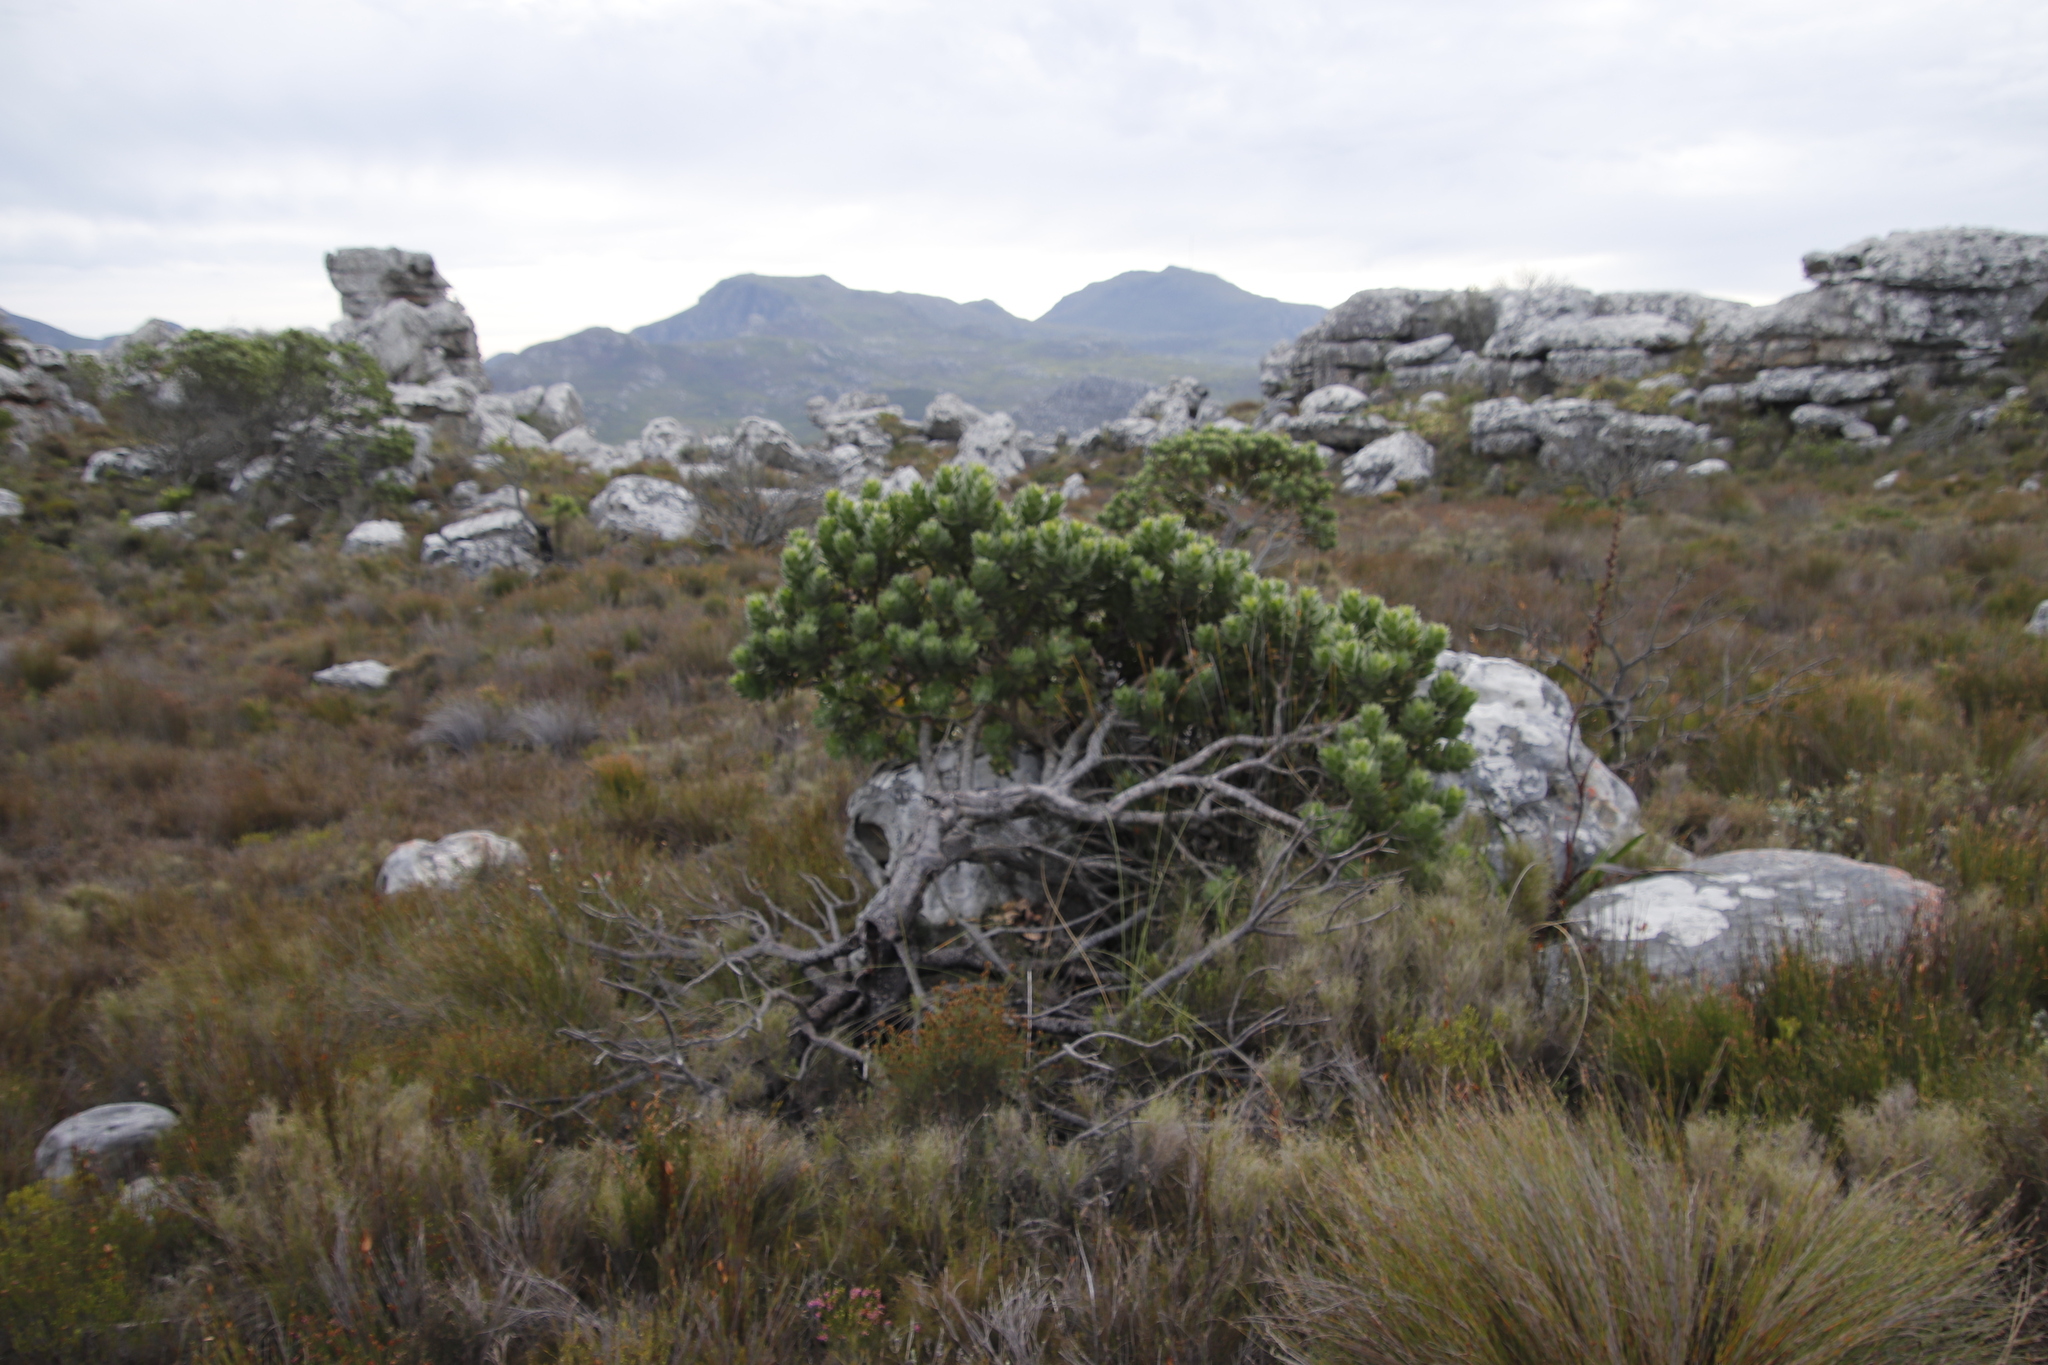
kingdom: Plantae
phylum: Tracheophyta
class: Magnoliopsida
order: Proteales
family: Proteaceae
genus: Leucospermum
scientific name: Leucospermum conocarpodendron
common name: Tree pincushion
